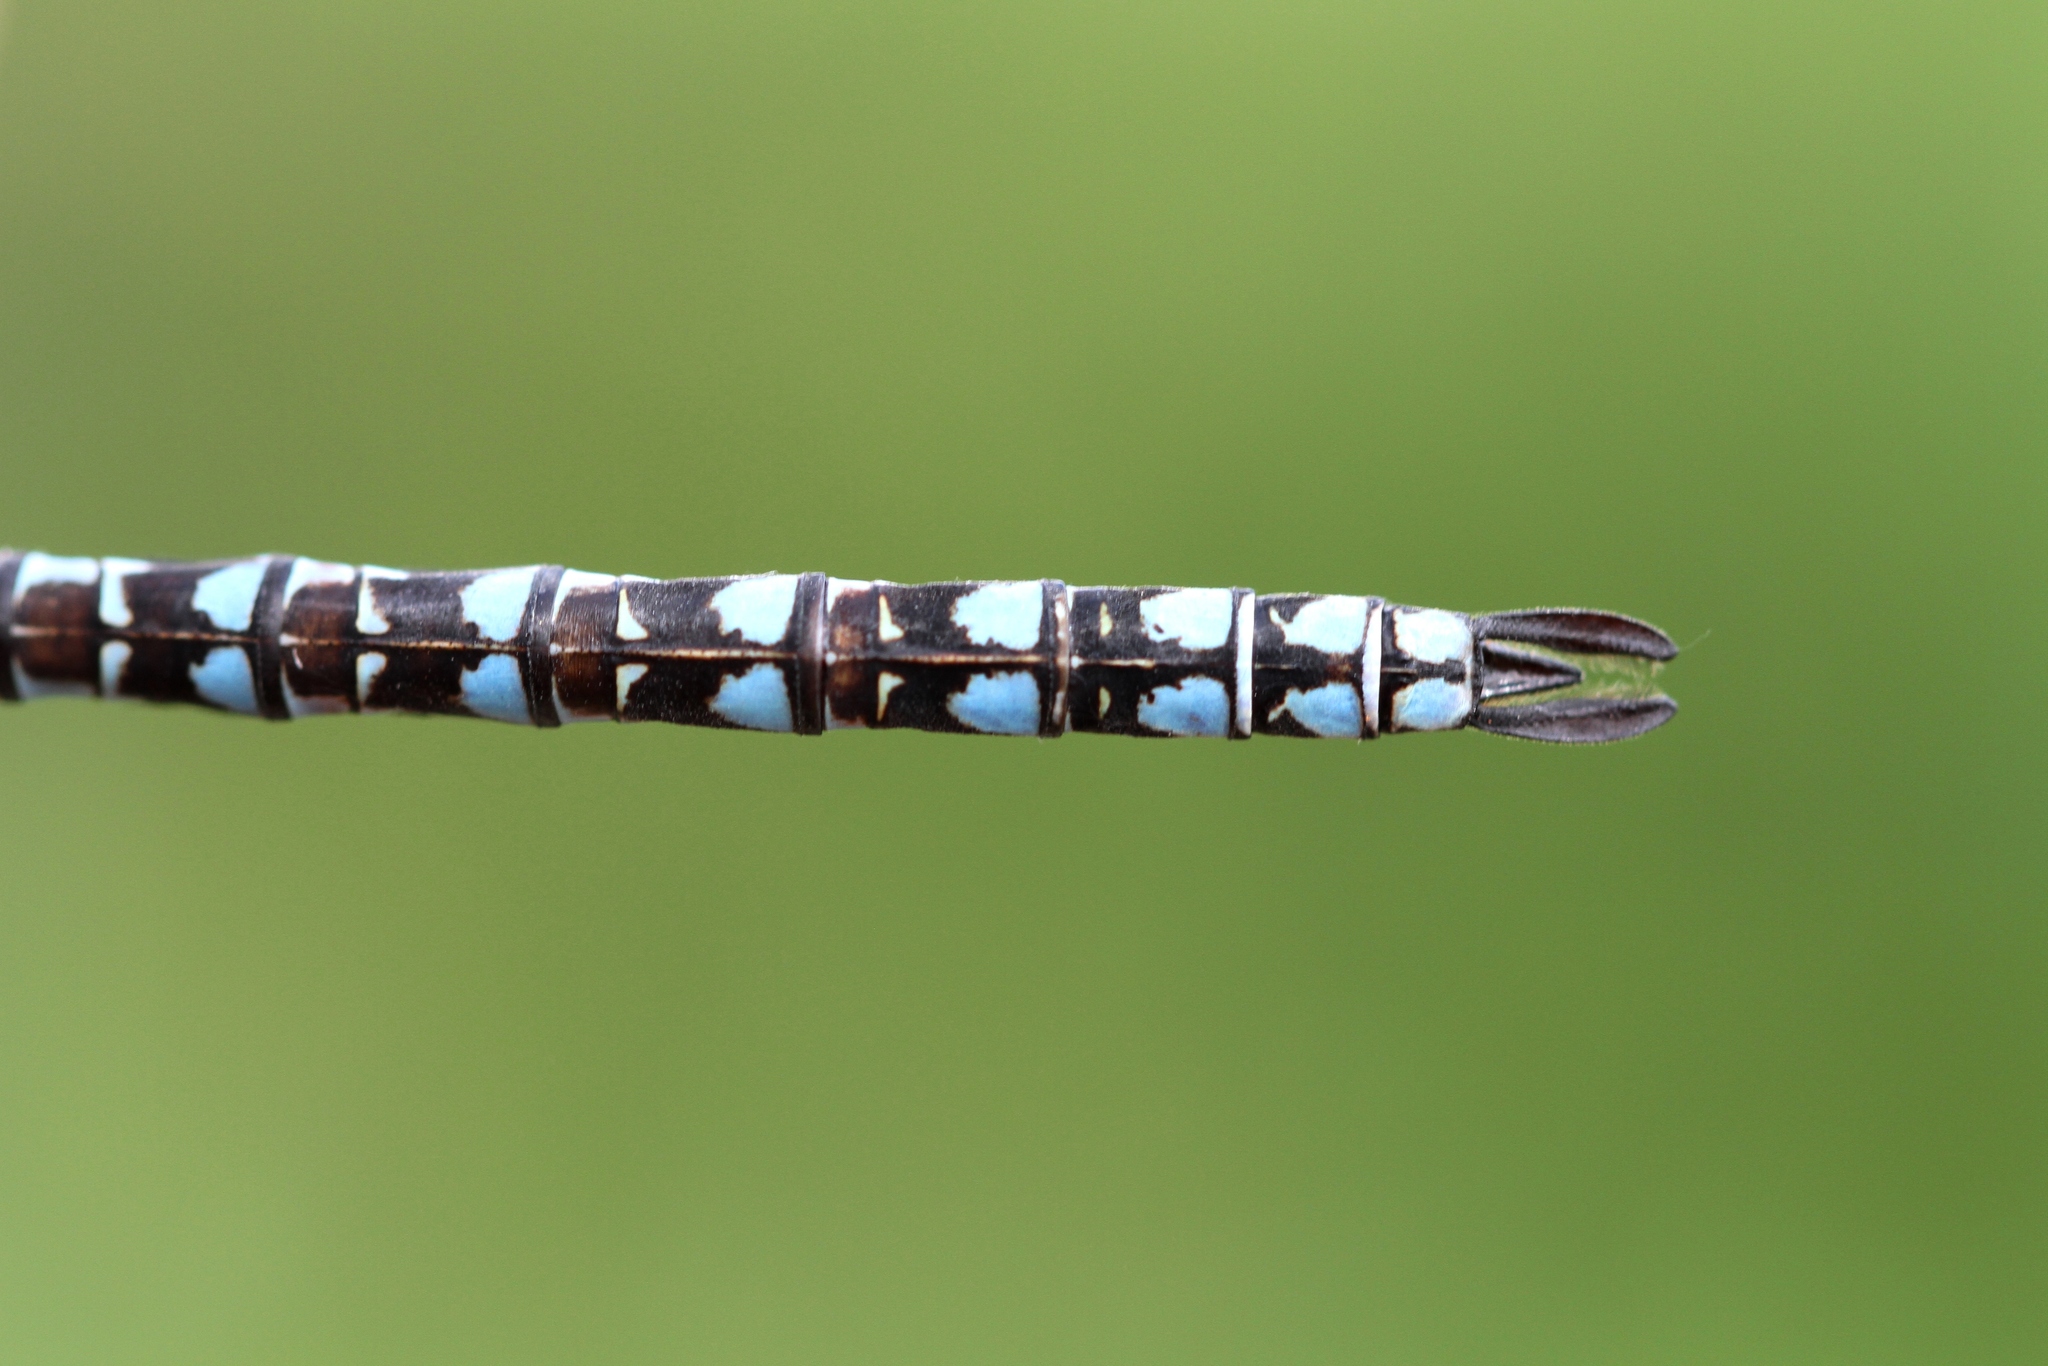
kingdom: Animalia
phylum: Arthropoda
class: Insecta
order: Odonata
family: Aeshnidae
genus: Aeshna
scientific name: Aeshna sitchensis
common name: Zigzag darner
